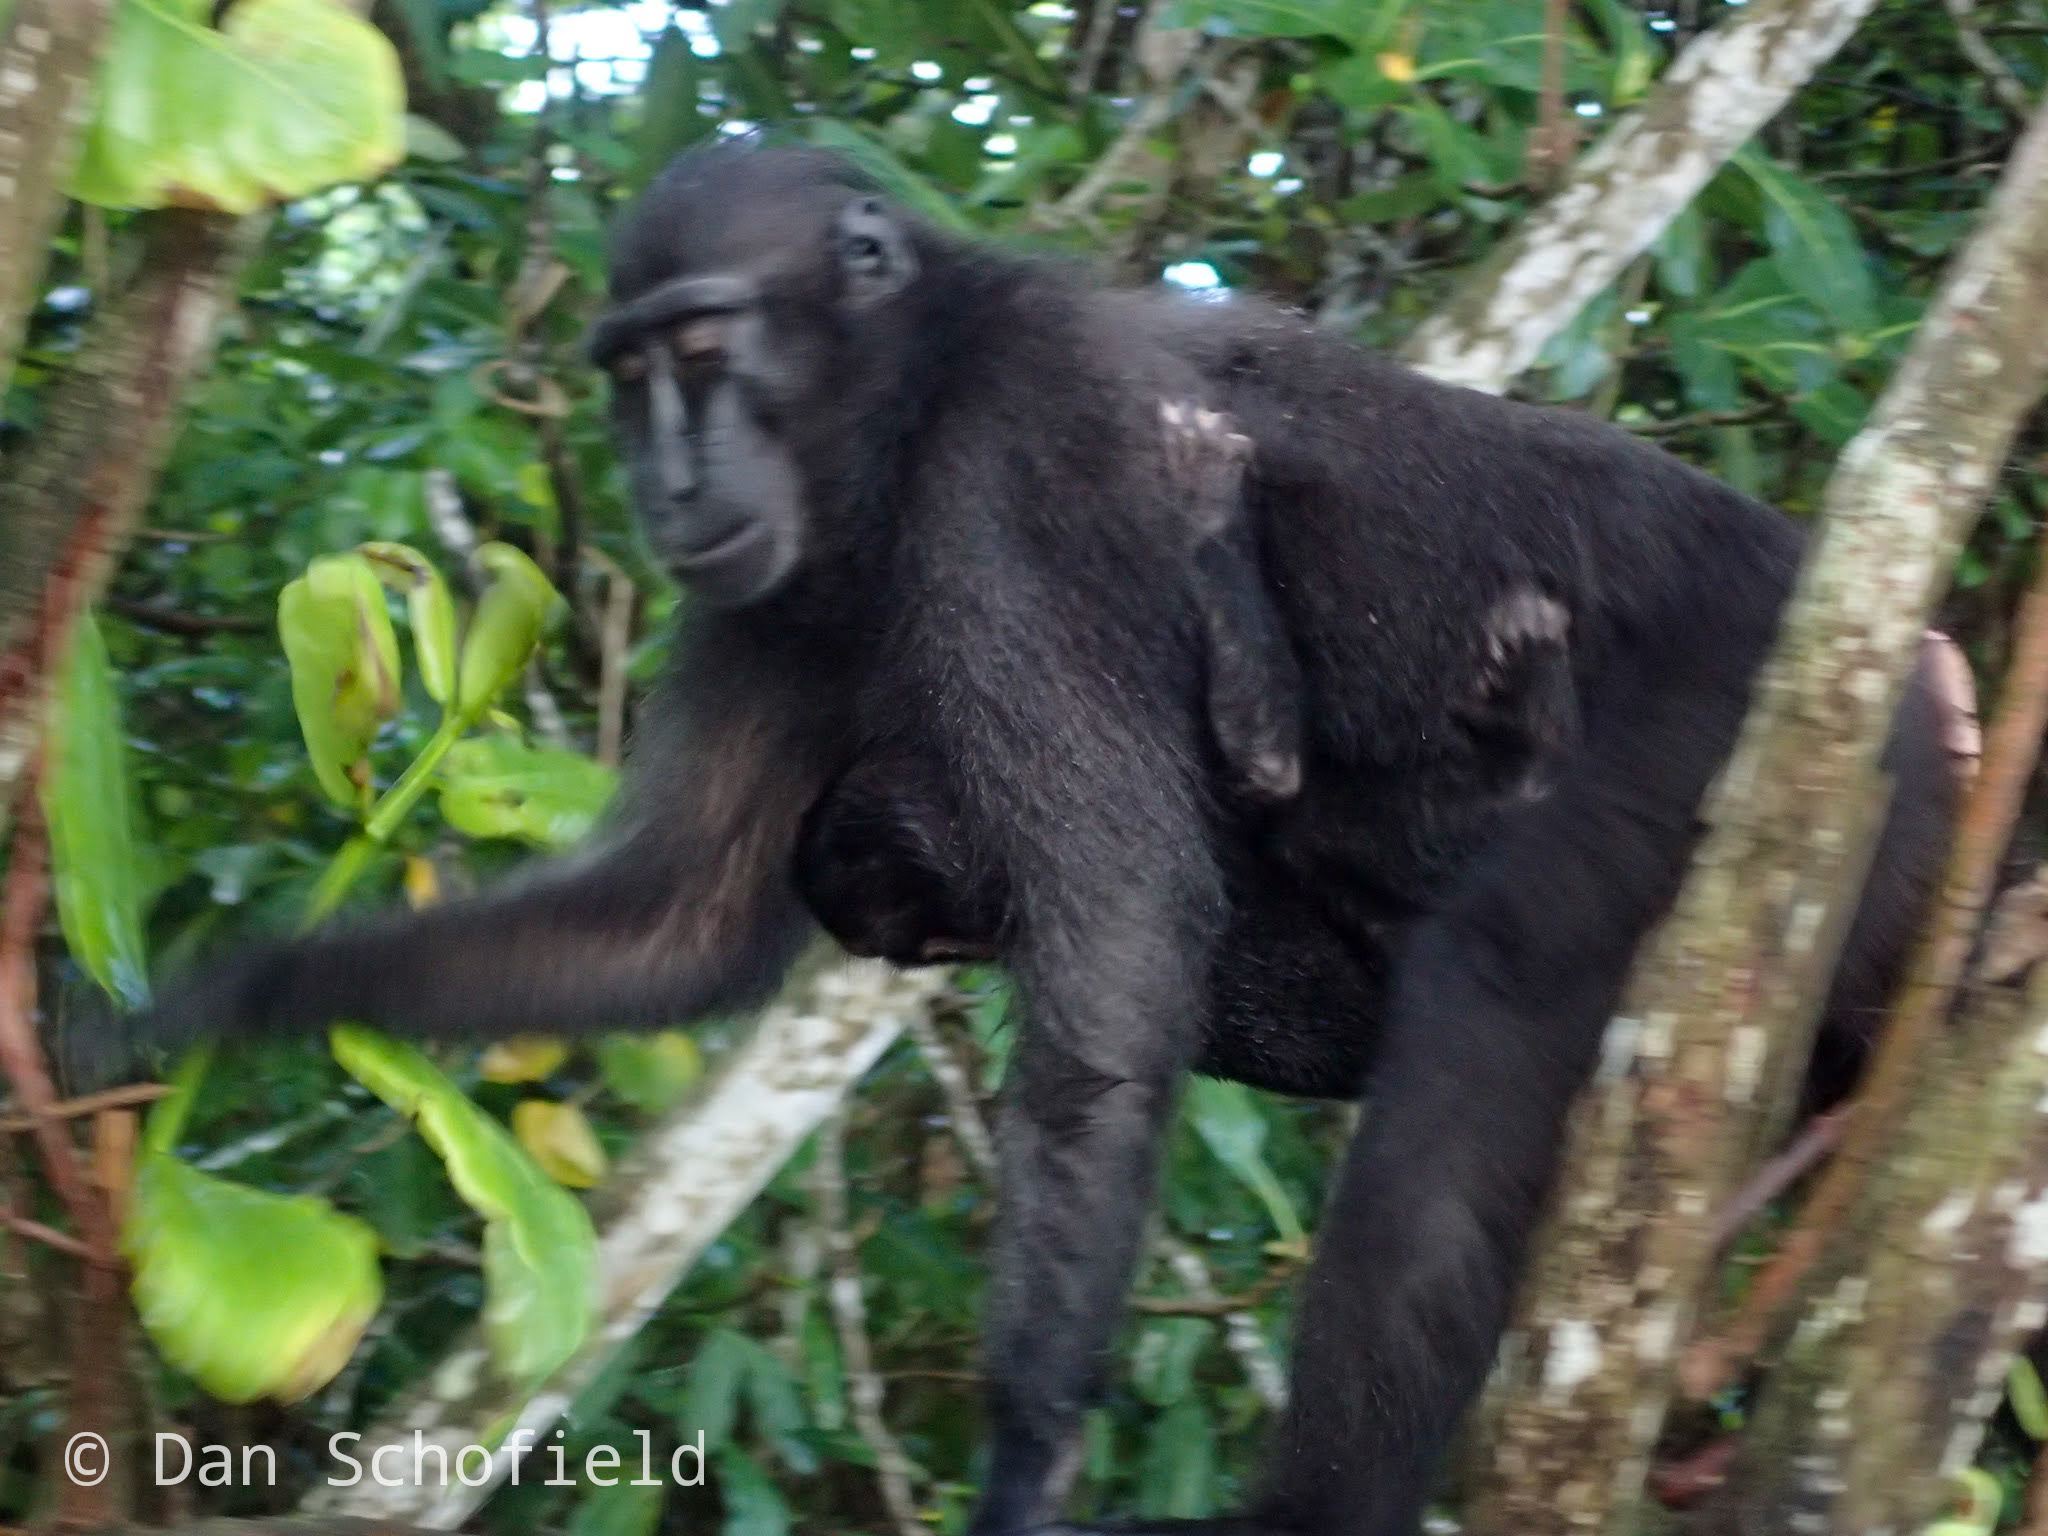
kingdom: Animalia
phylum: Chordata
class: Mammalia
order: Primates
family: Cercopithecidae
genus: Macaca
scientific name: Macaca nigra
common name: Celebes crested macaque
